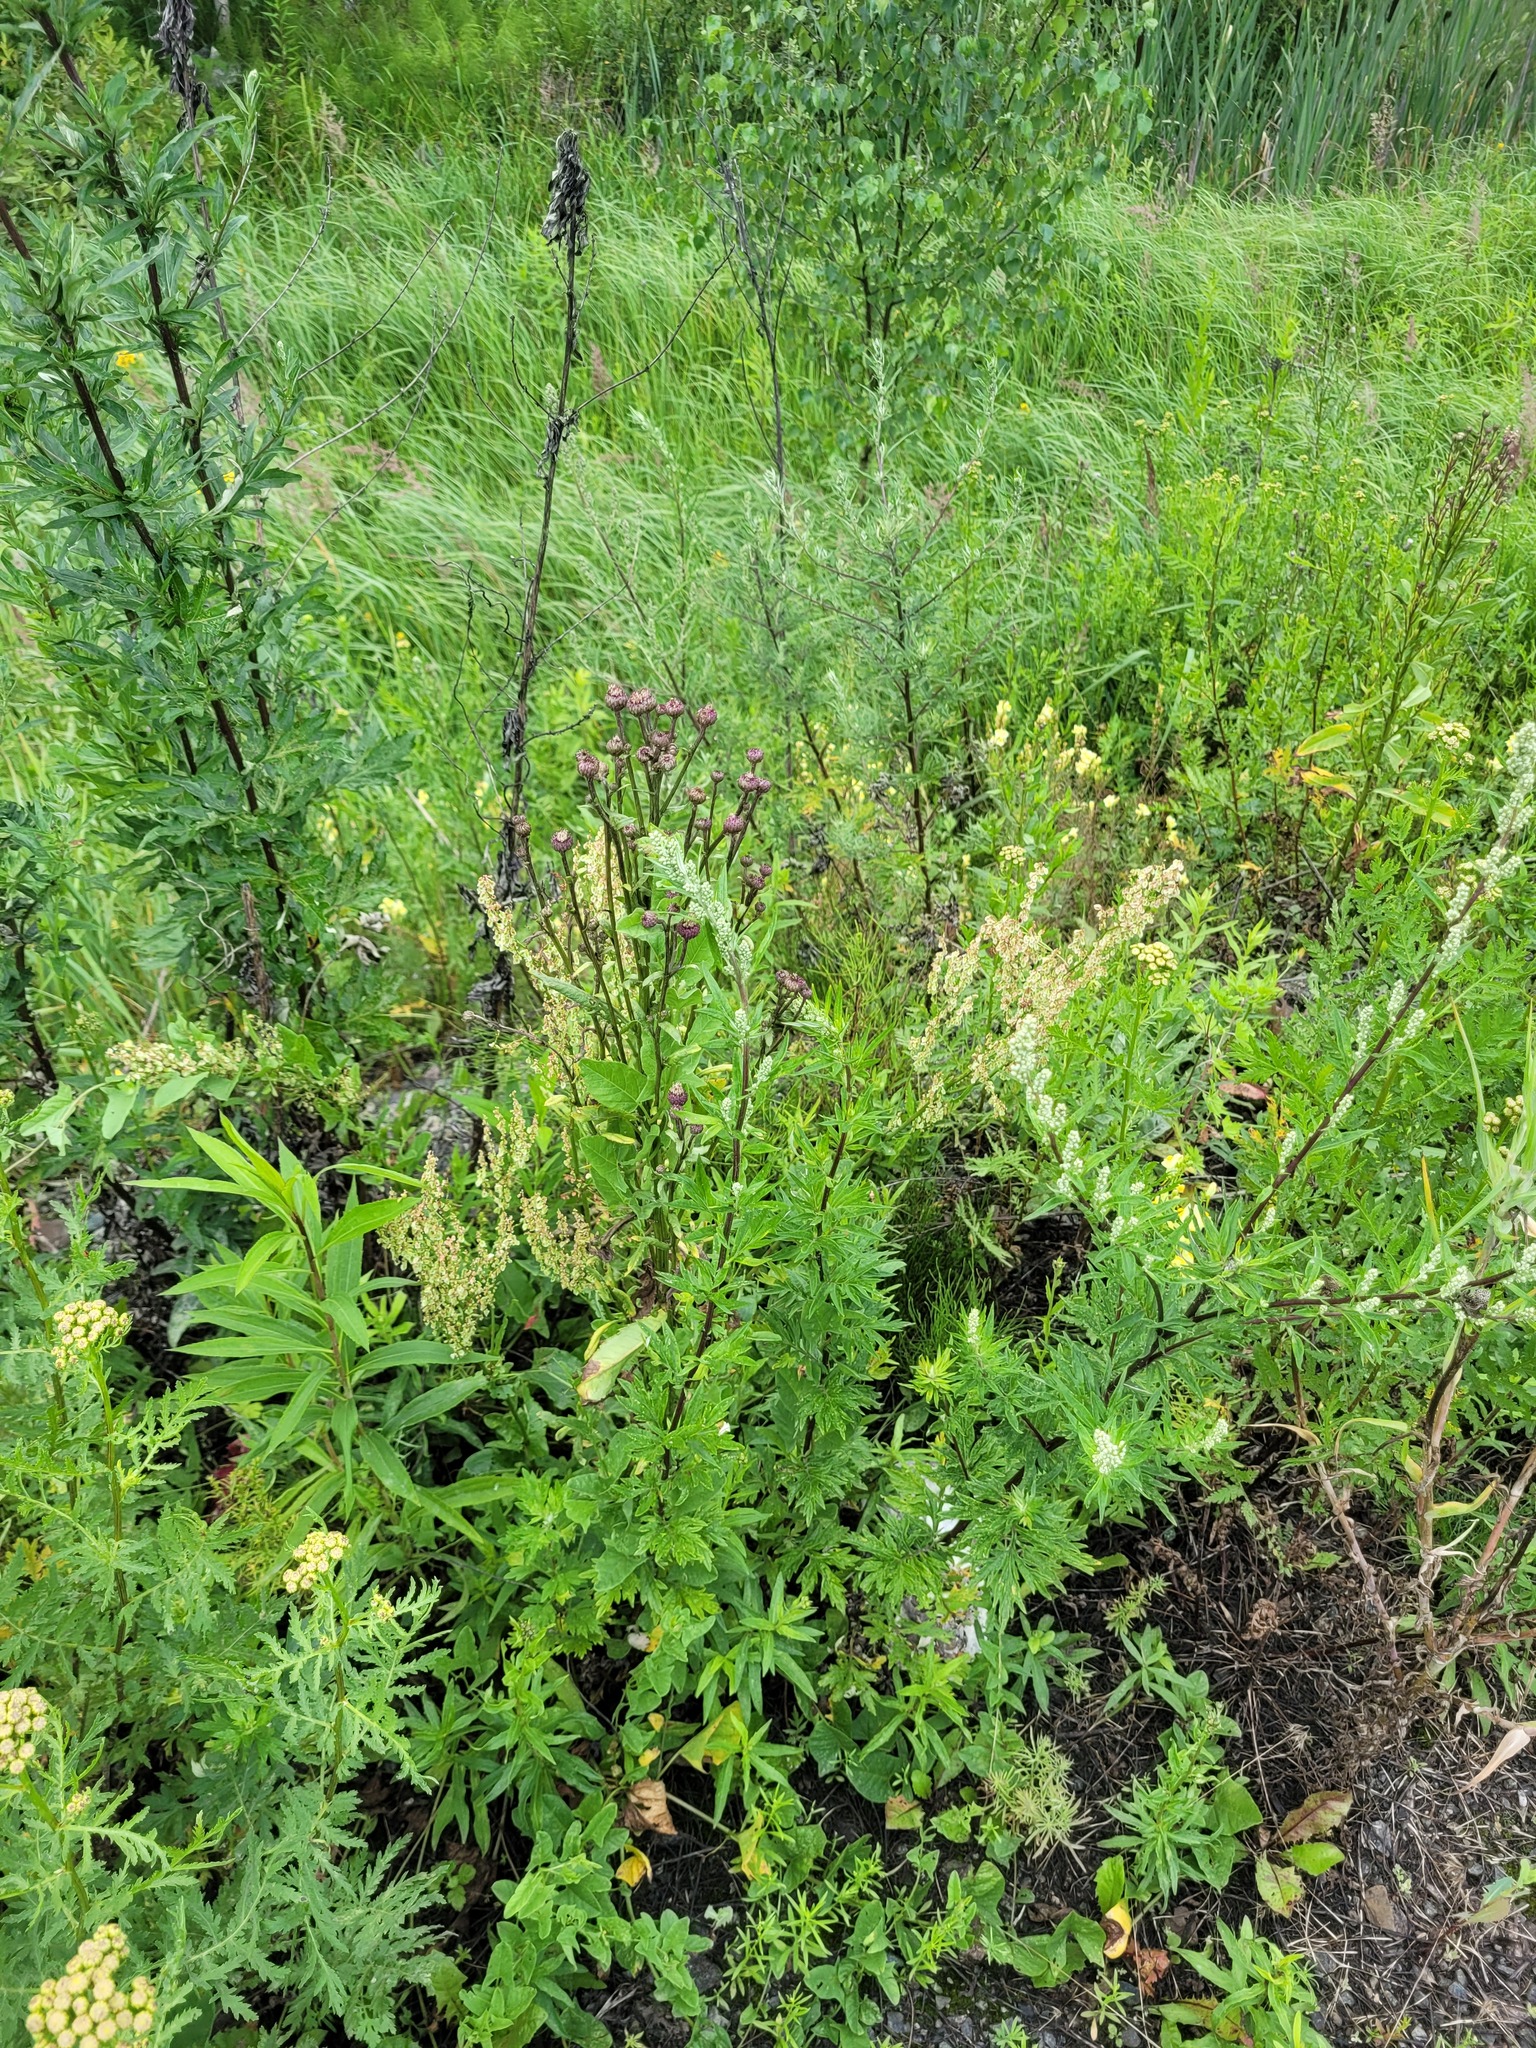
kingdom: Plantae
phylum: Tracheophyta
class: Magnoliopsida
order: Asterales
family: Asteraceae
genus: Cirsium
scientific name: Cirsium arvense
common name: Creeping thistle
